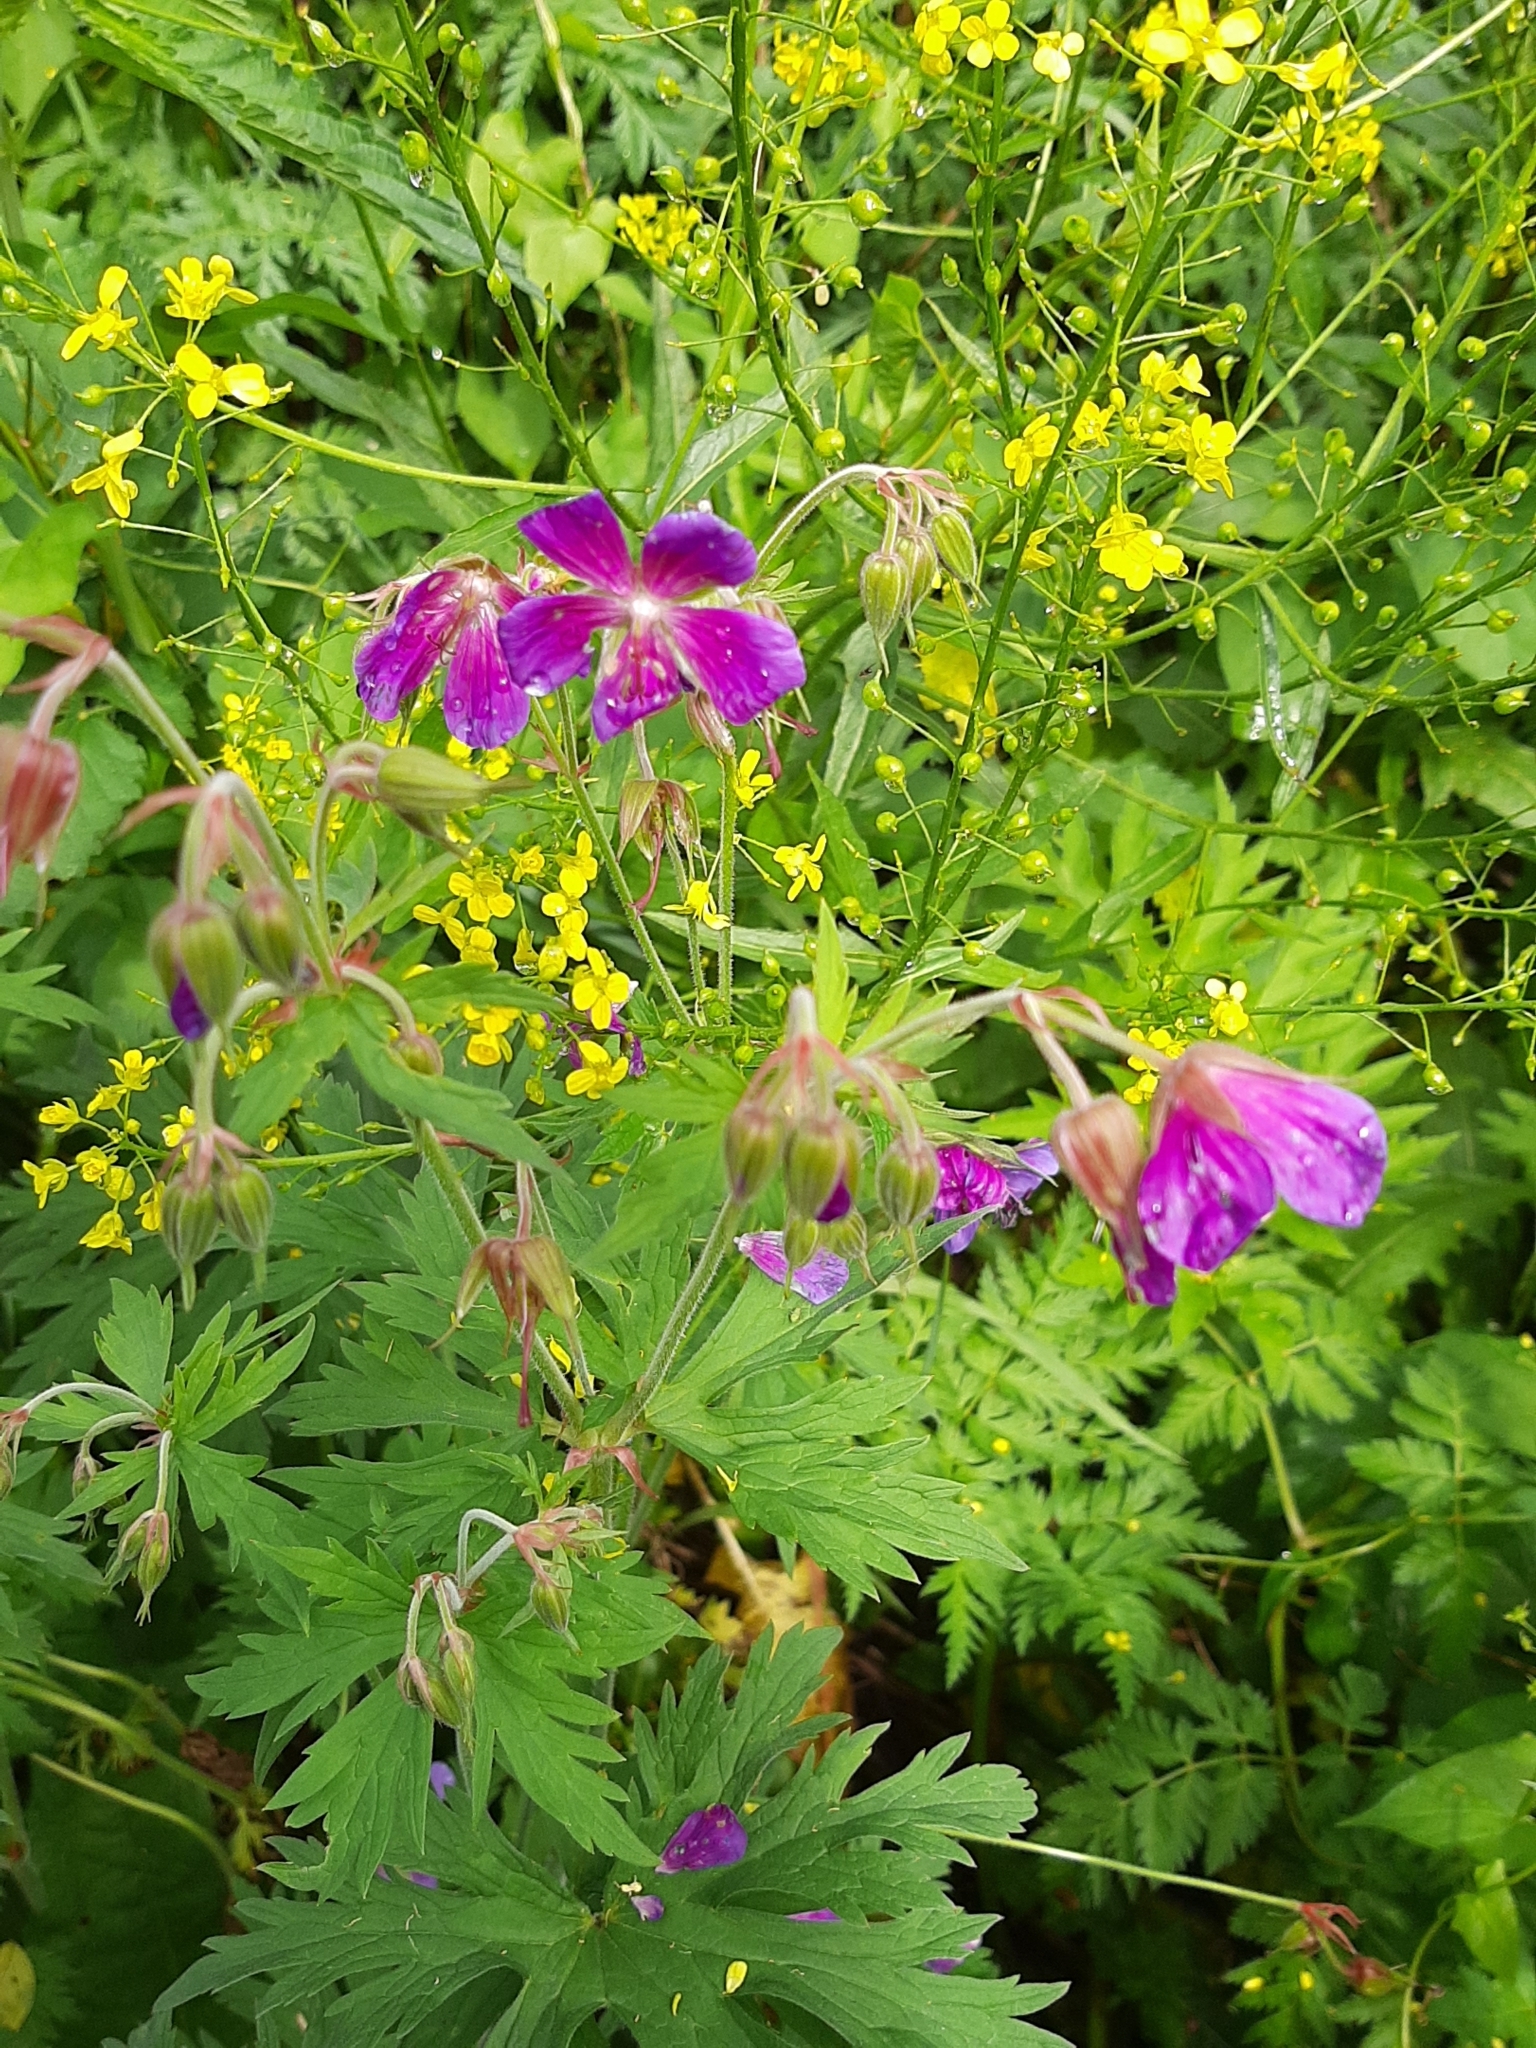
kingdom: Plantae
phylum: Tracheophyta
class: Magnoliopsida
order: Geraniales
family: Geraniaceae
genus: Geranium
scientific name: Geranium pratense
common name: Meadow crane's-bill
